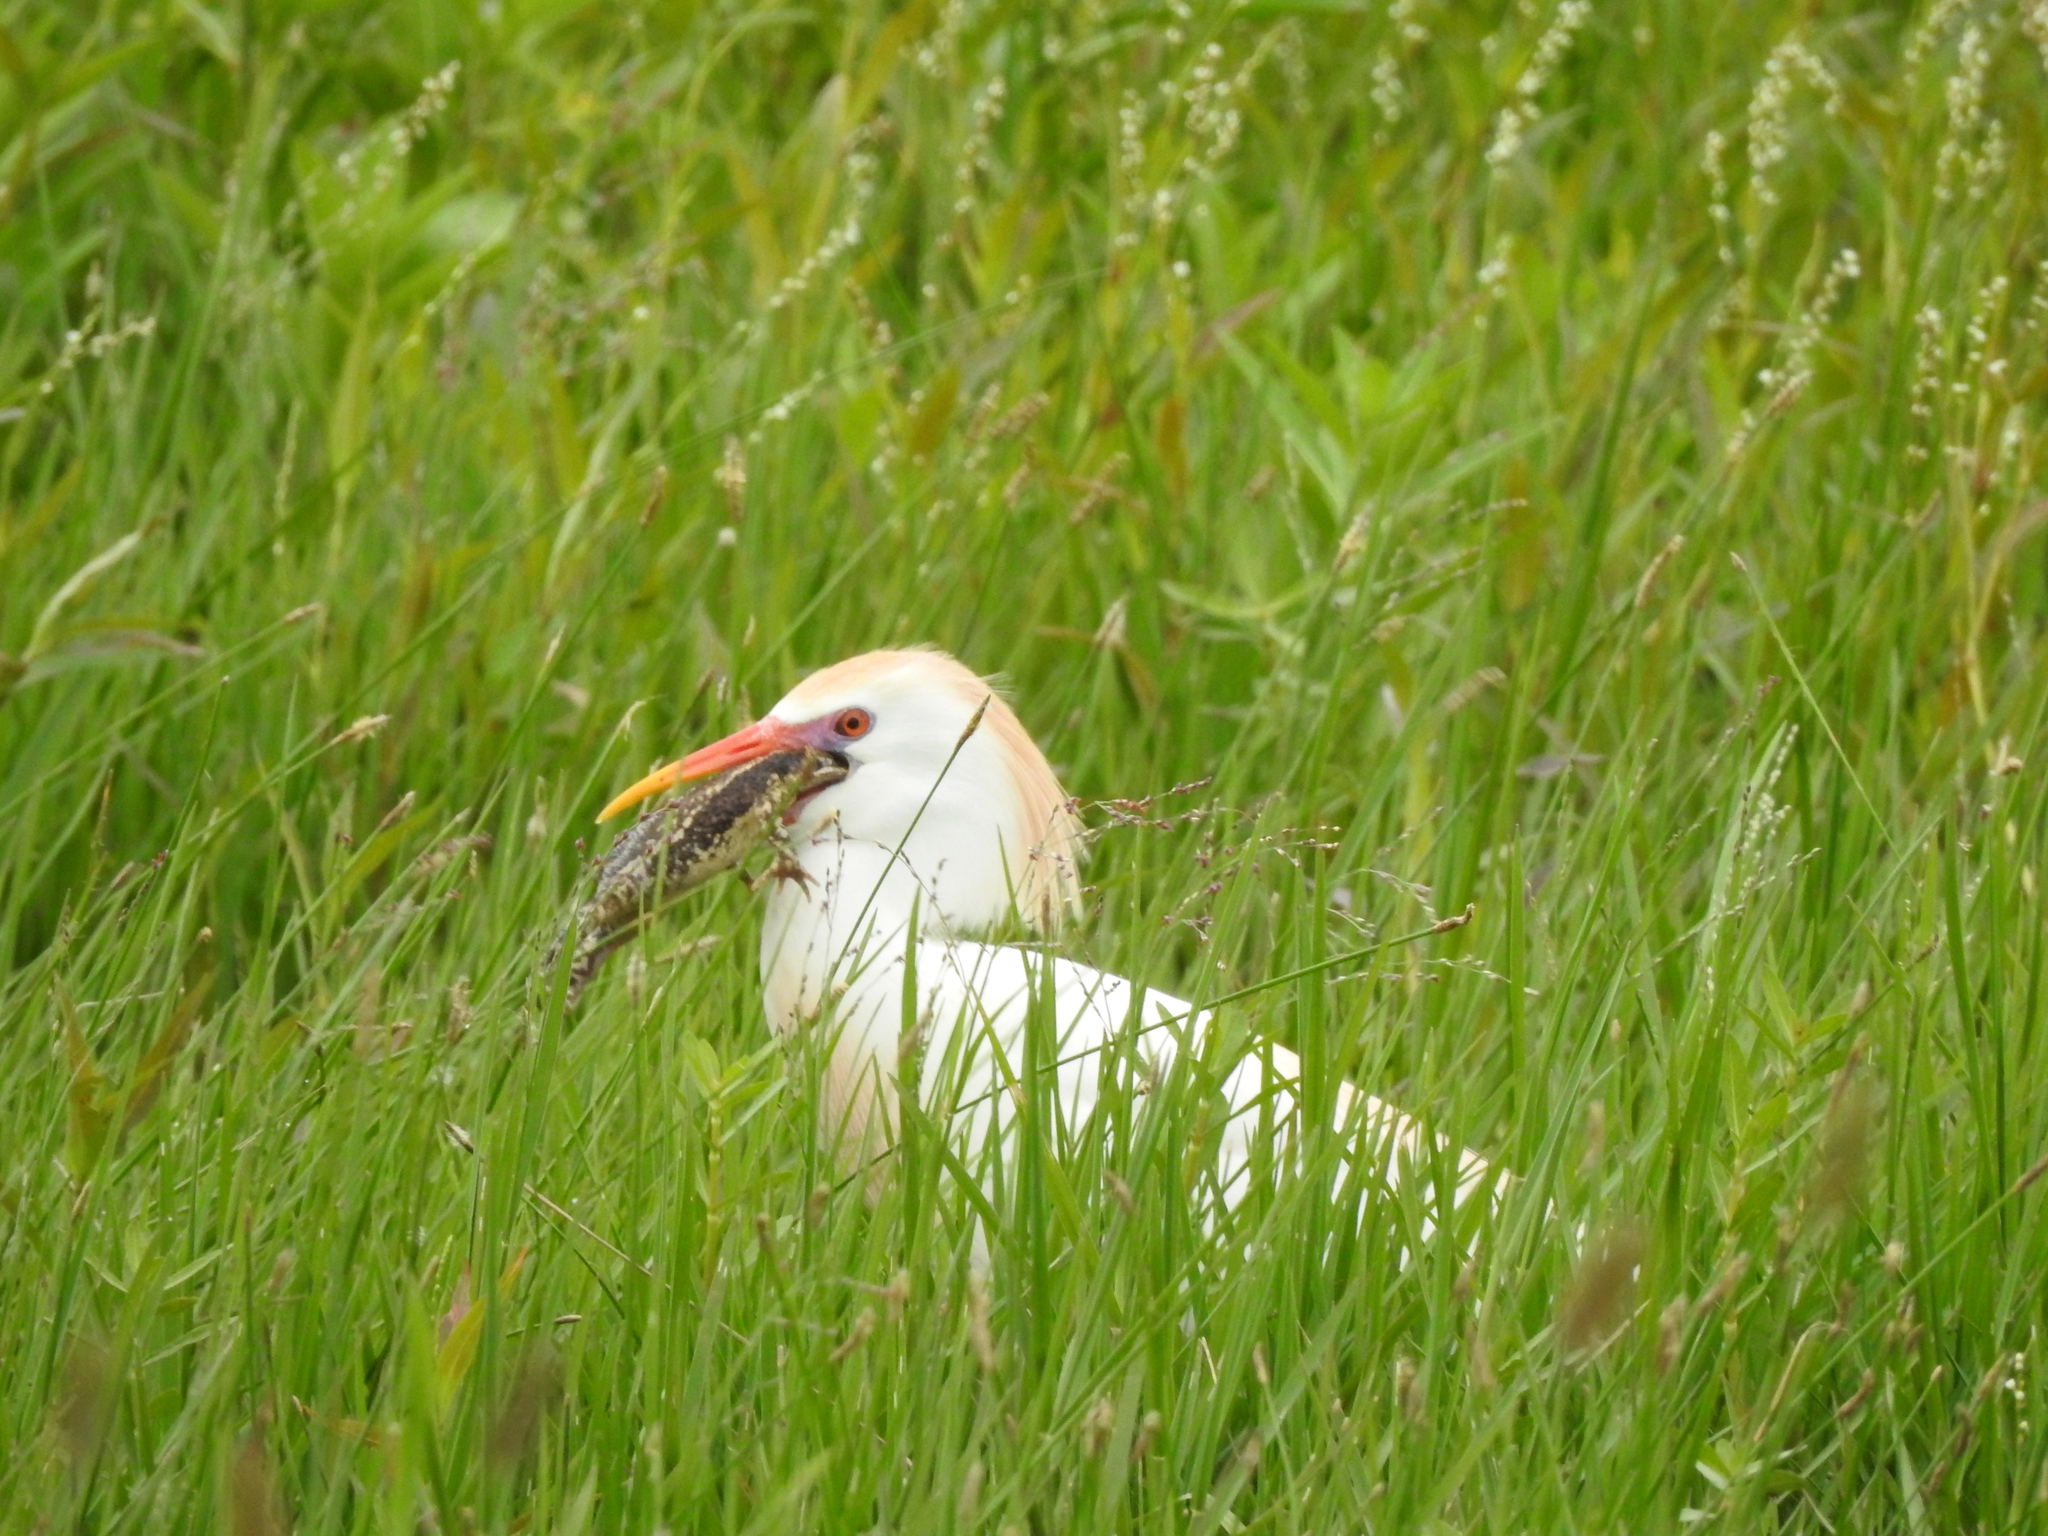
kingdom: Animalia
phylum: Chordata
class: Aves
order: Pelecaniformes
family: Ardeidae
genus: Bubulcus
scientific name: Bubulcus ibis
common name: Cattle egret
